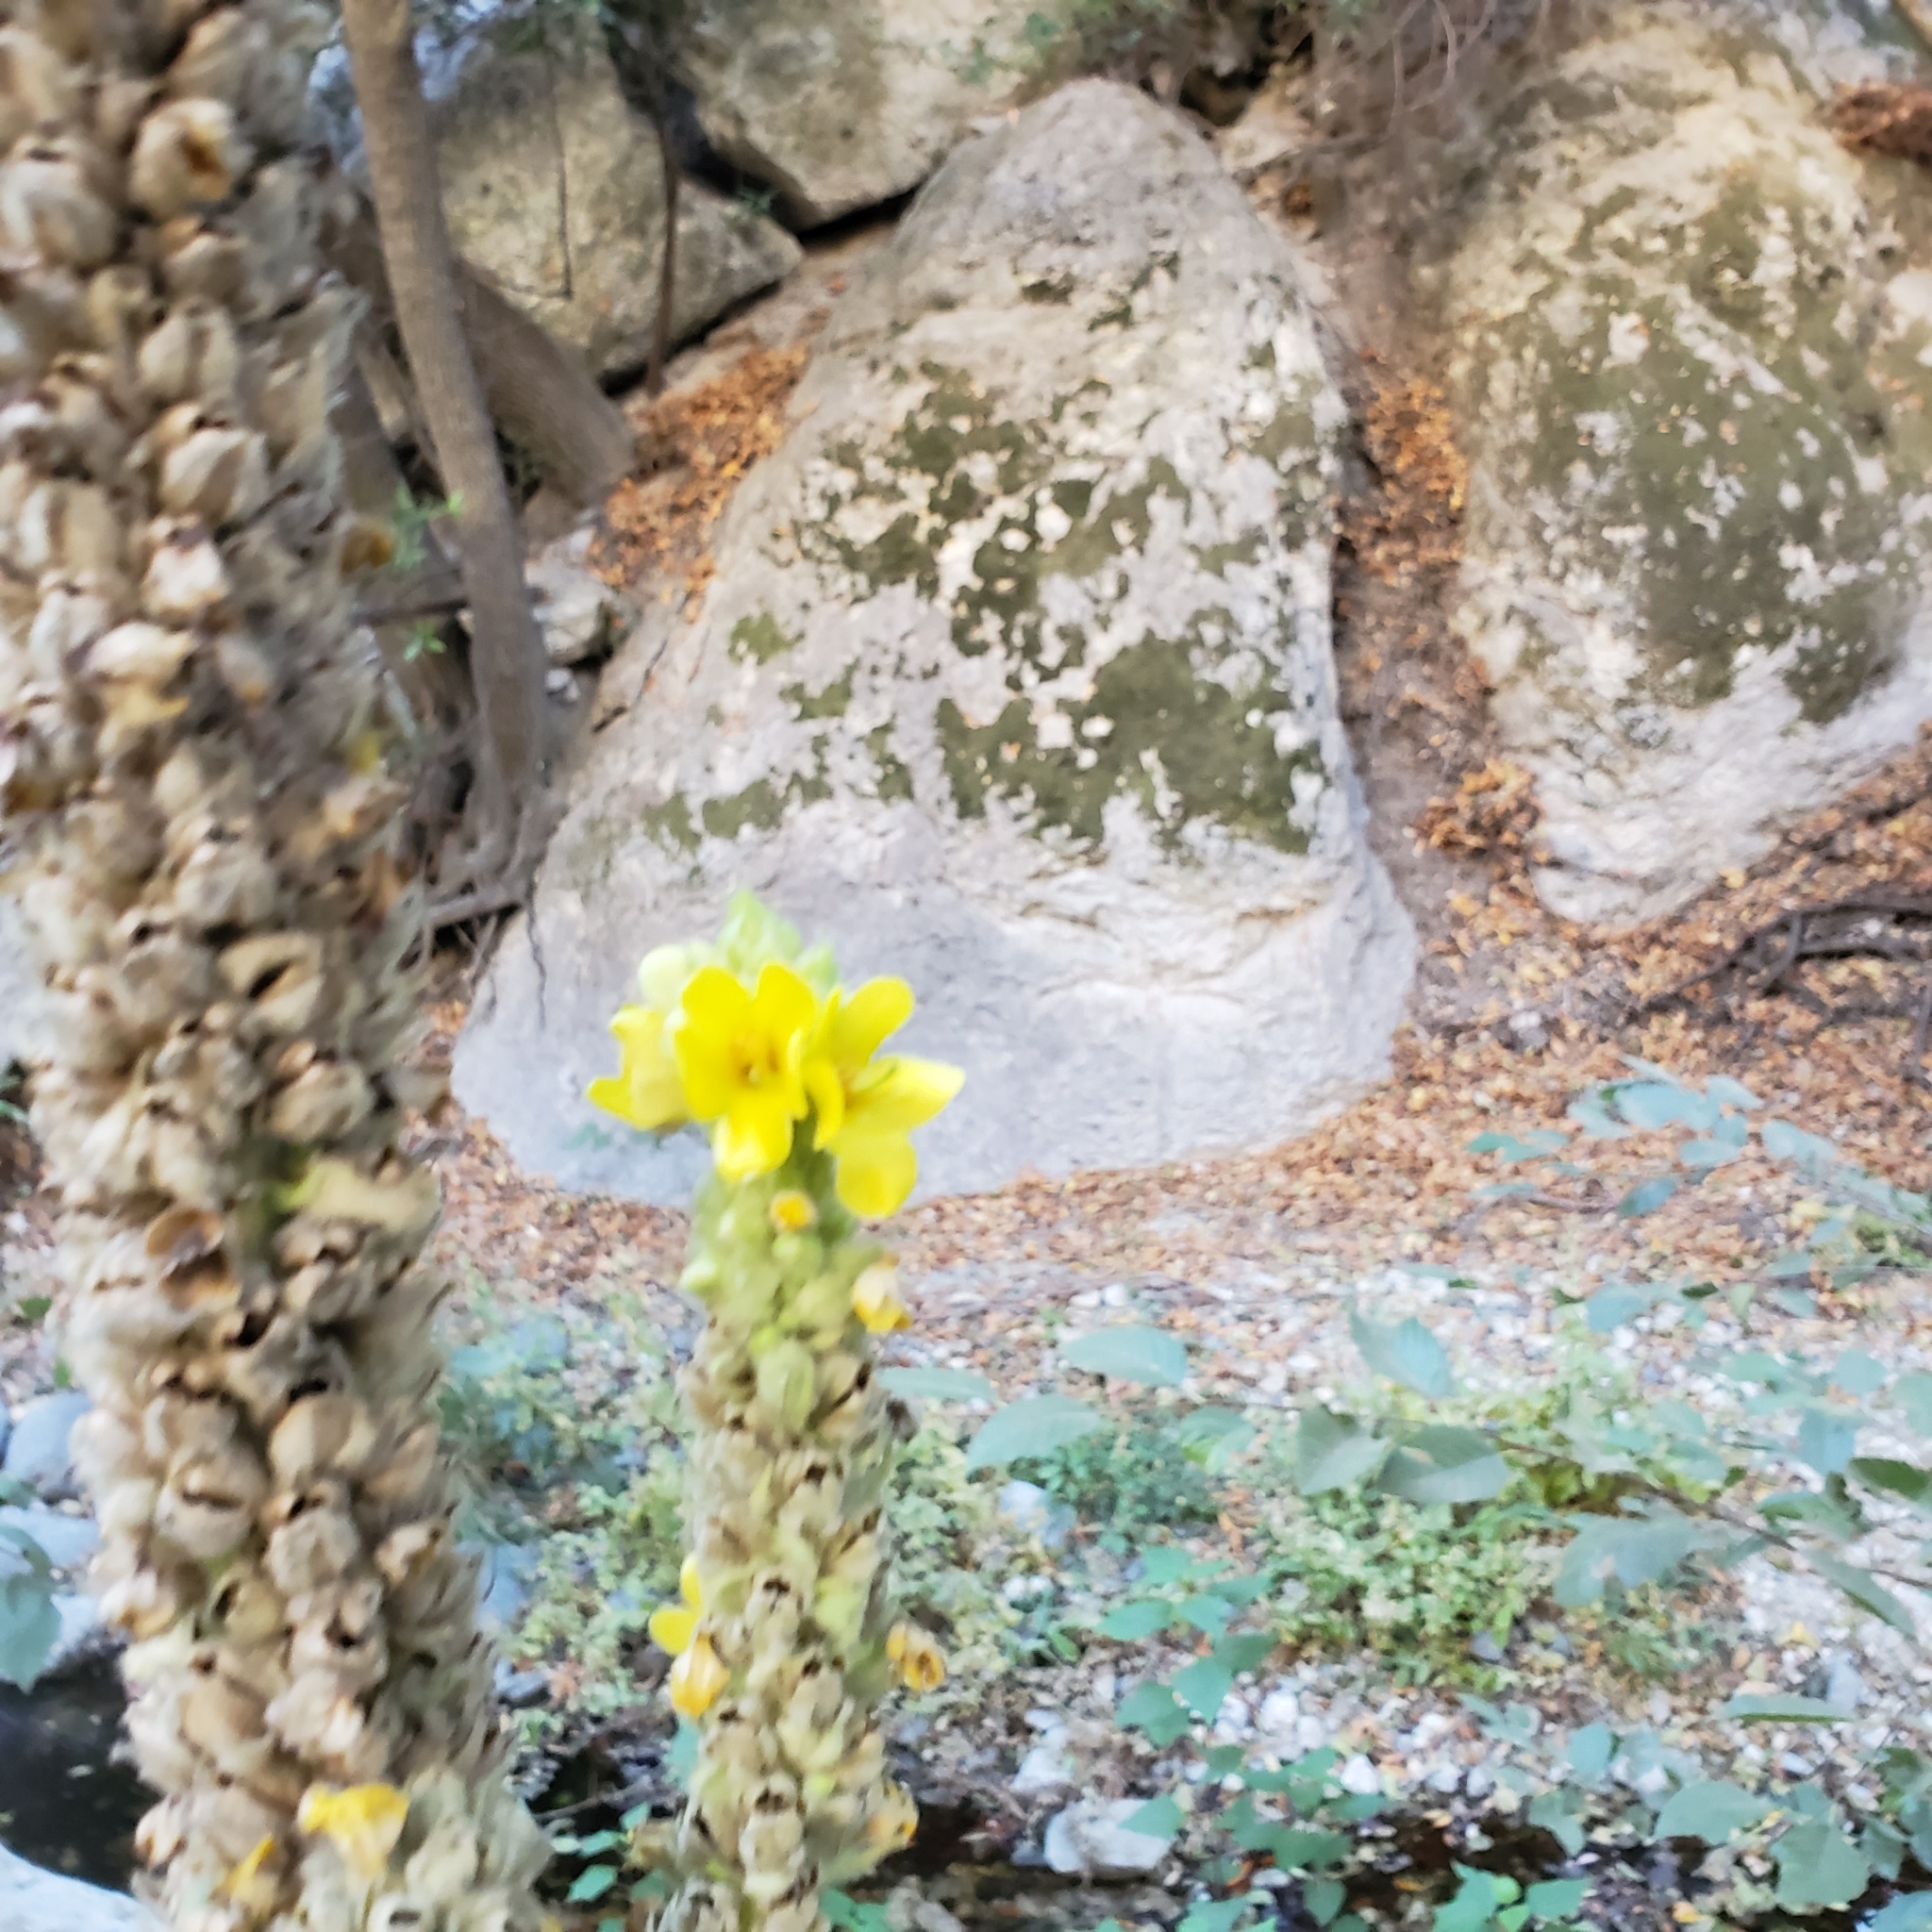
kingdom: Plantae
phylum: Tracheophyta
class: Magnoliopsida
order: Lamiales
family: Scrophulariaceae
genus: Verbascum
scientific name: Verbascum thapsus
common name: Common mullein
